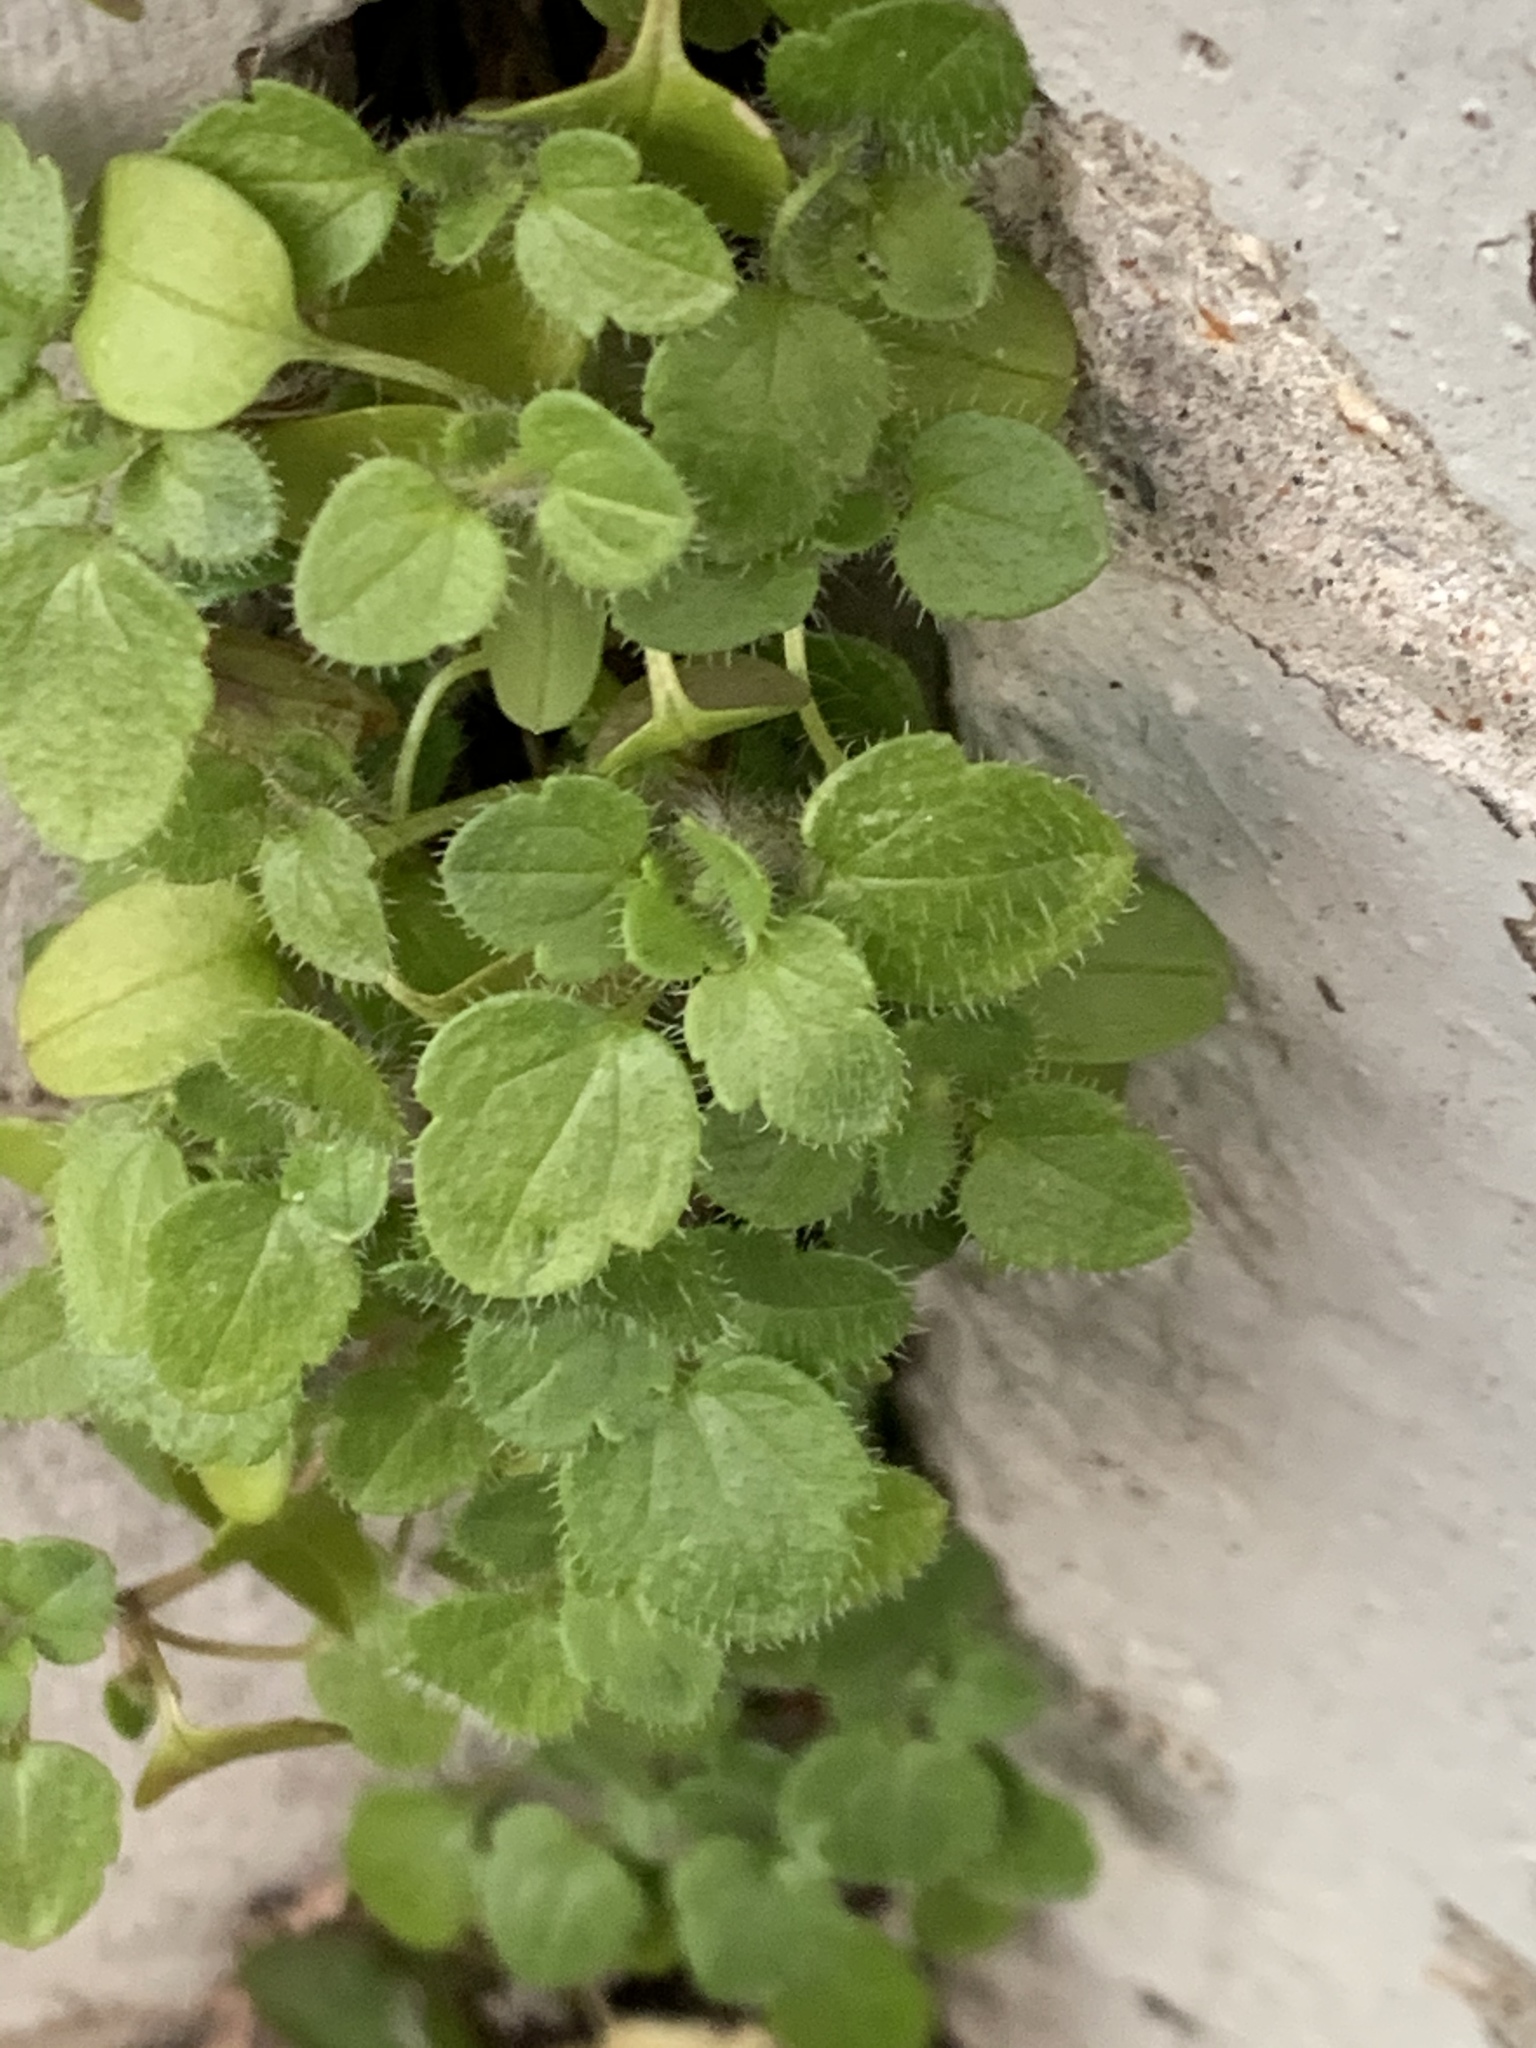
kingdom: Plantae
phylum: Tracheophyta
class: Magnoliopsida
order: Lamiales
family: Plantaginaceae
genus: Veronica
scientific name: Veronica hederifolia
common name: Ivy-leaved speedwell
